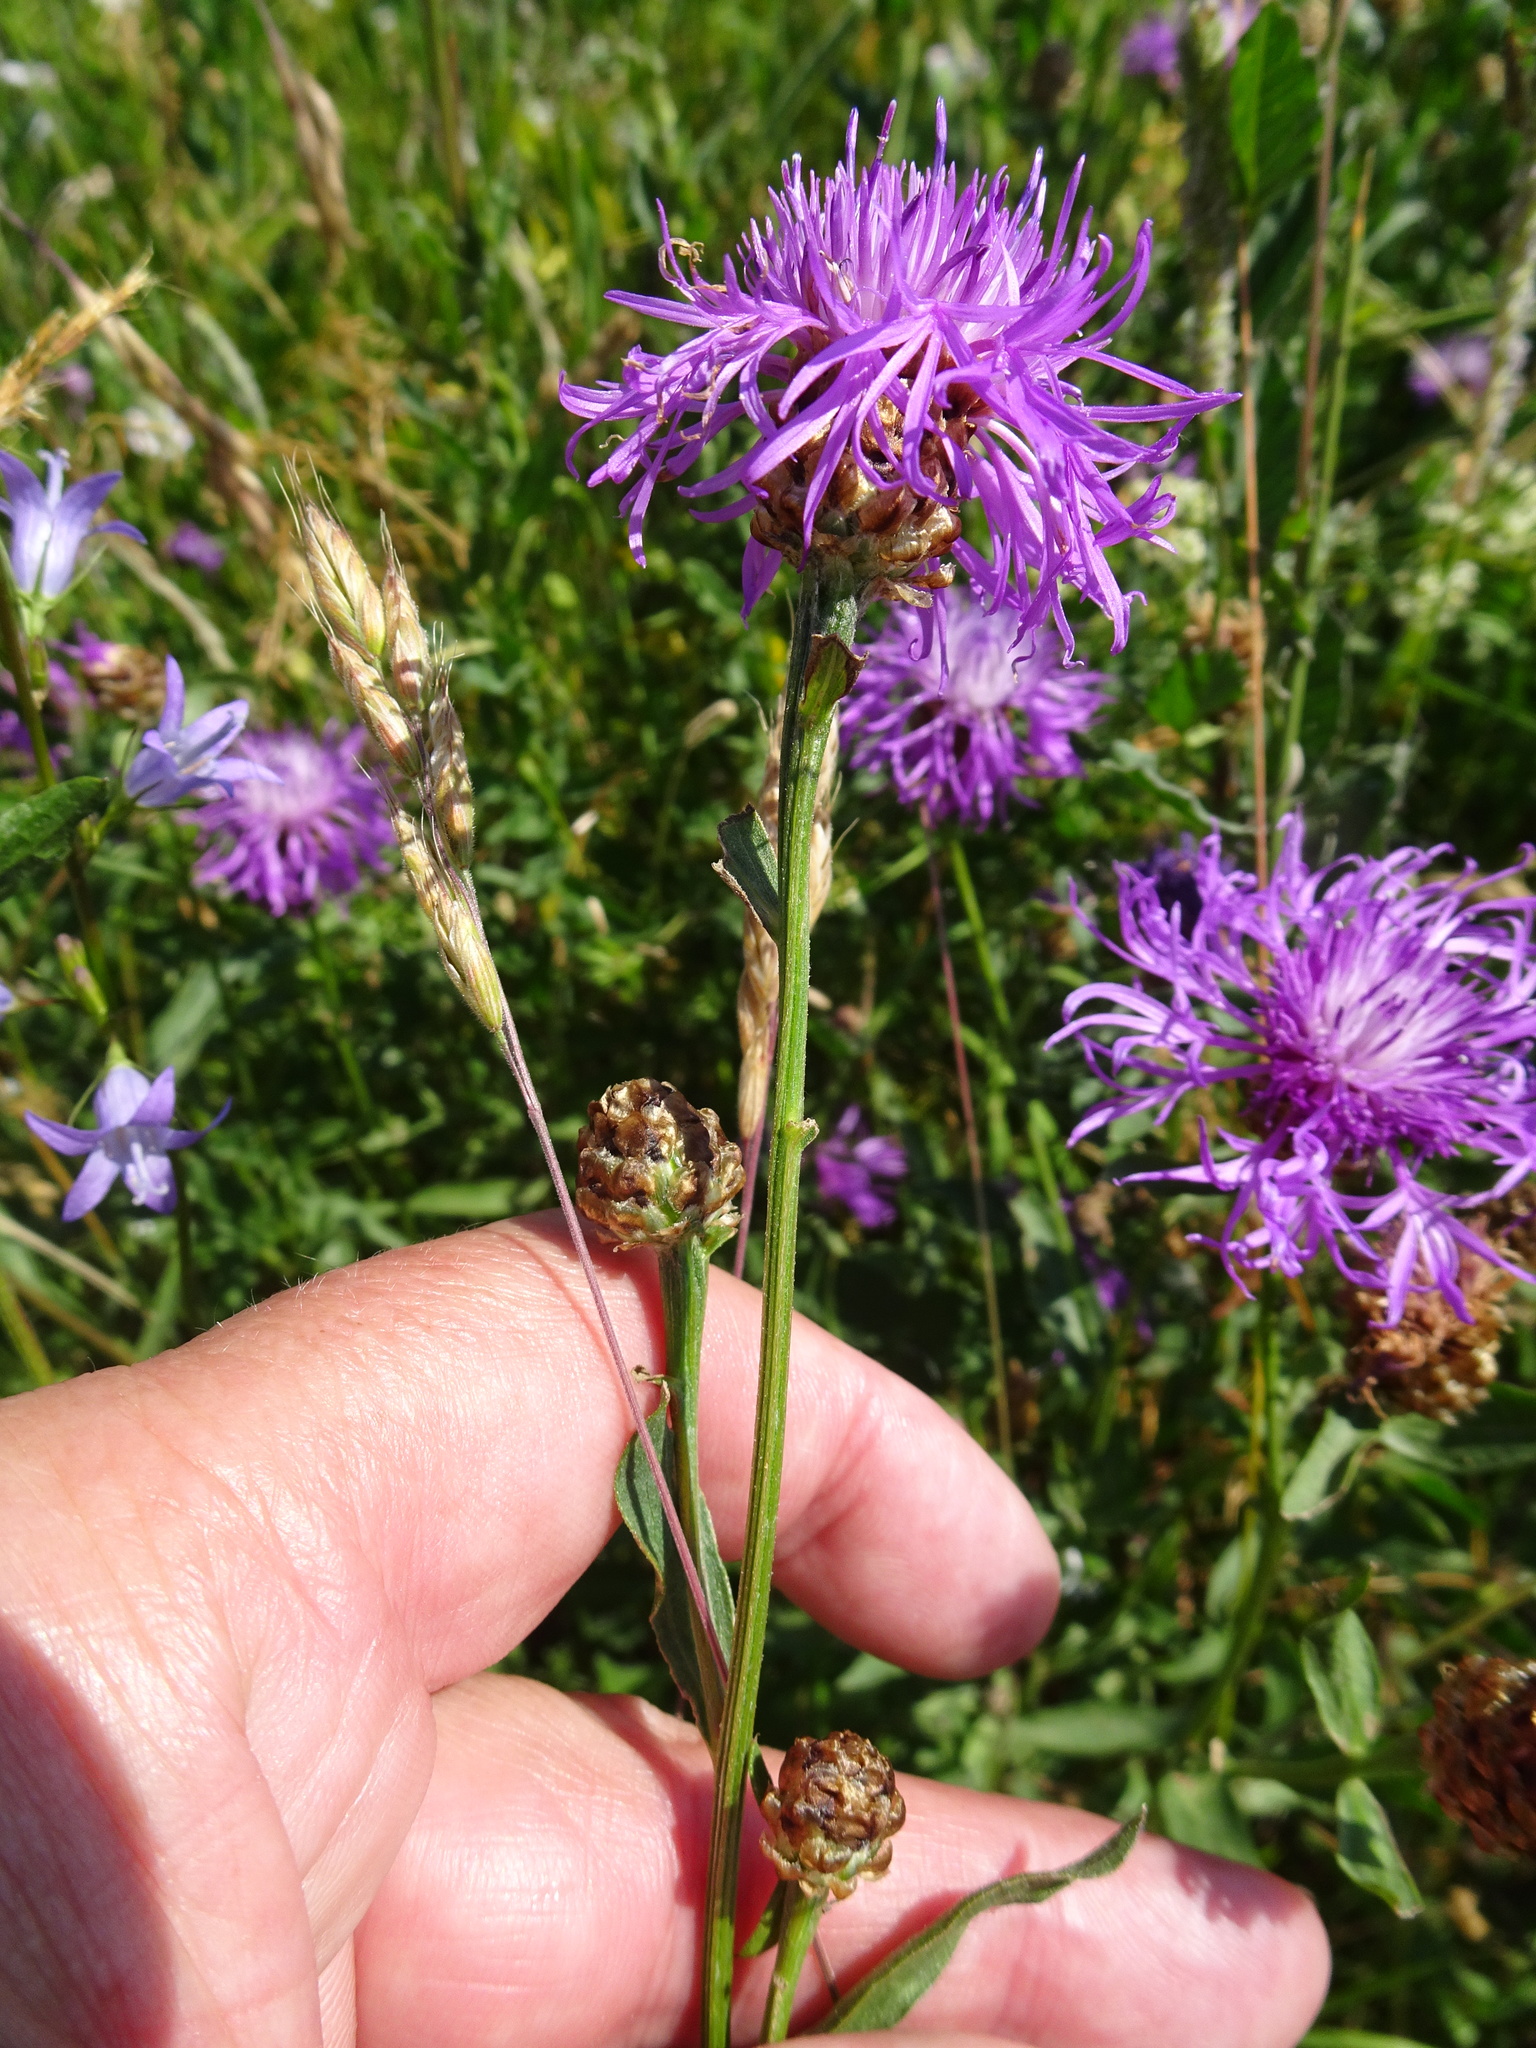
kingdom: Plantae
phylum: Tracheophyta
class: Magnoliopsida
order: Asterales
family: Asteraceae
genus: Centaurea
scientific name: Centaurea jacea
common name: Brown knapweed
